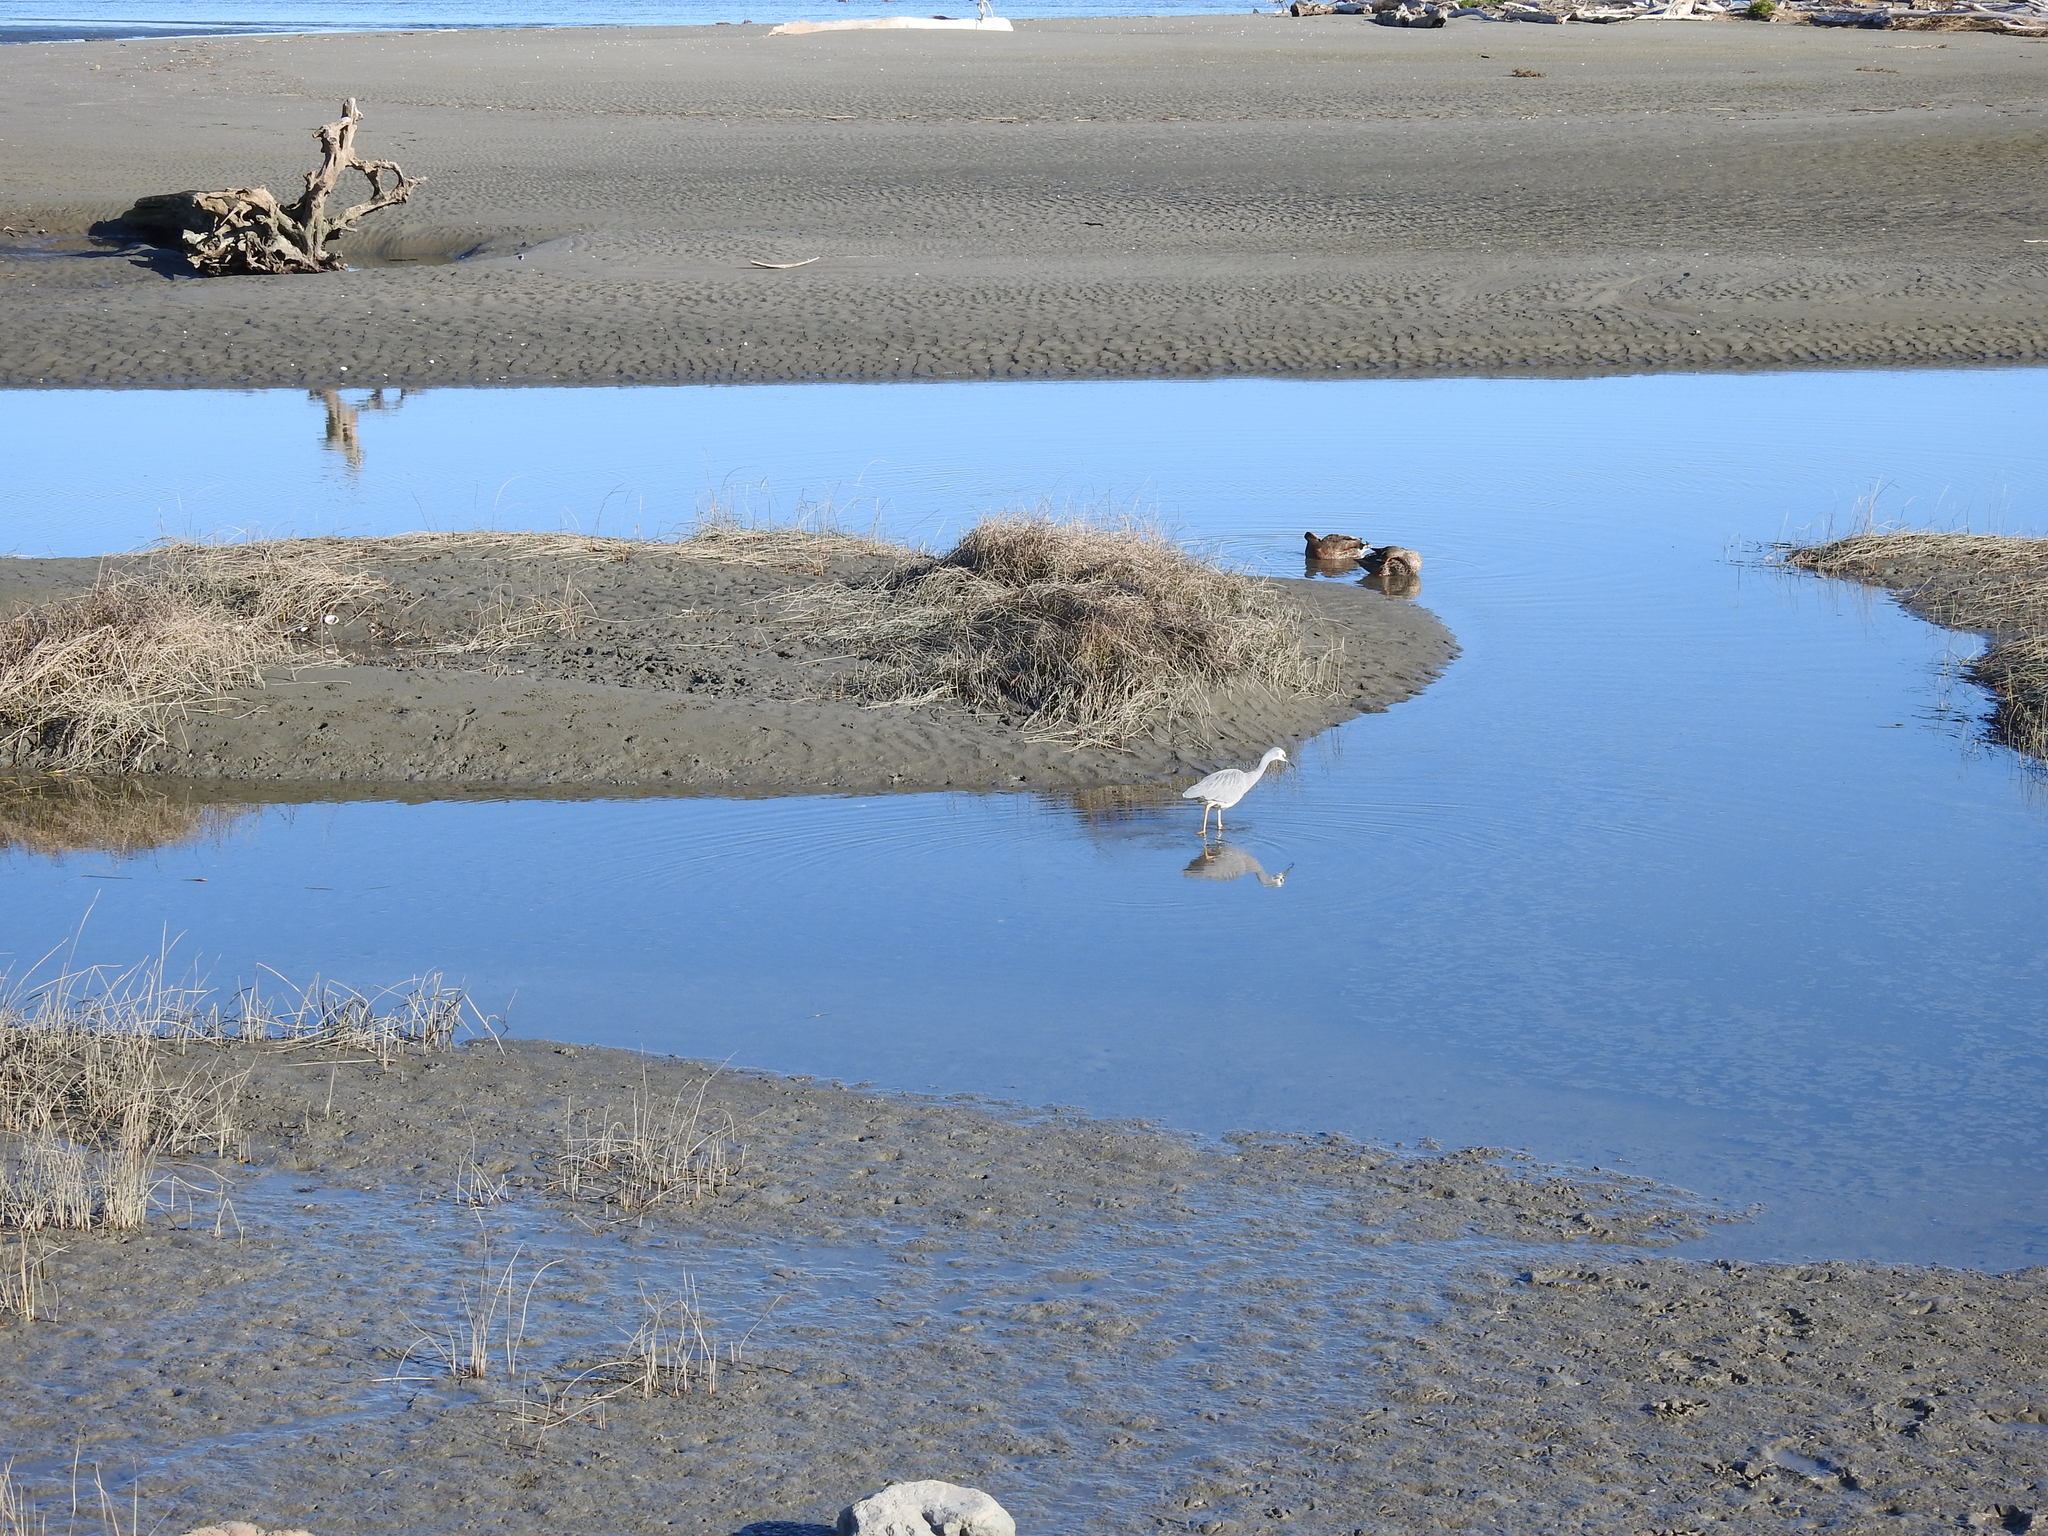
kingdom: Animalia
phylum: Chordata
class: Aves
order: Pelecaniformes
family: Ardeidae
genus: Egretta
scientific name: Egretta novaehollandiae
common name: White-faced heron
